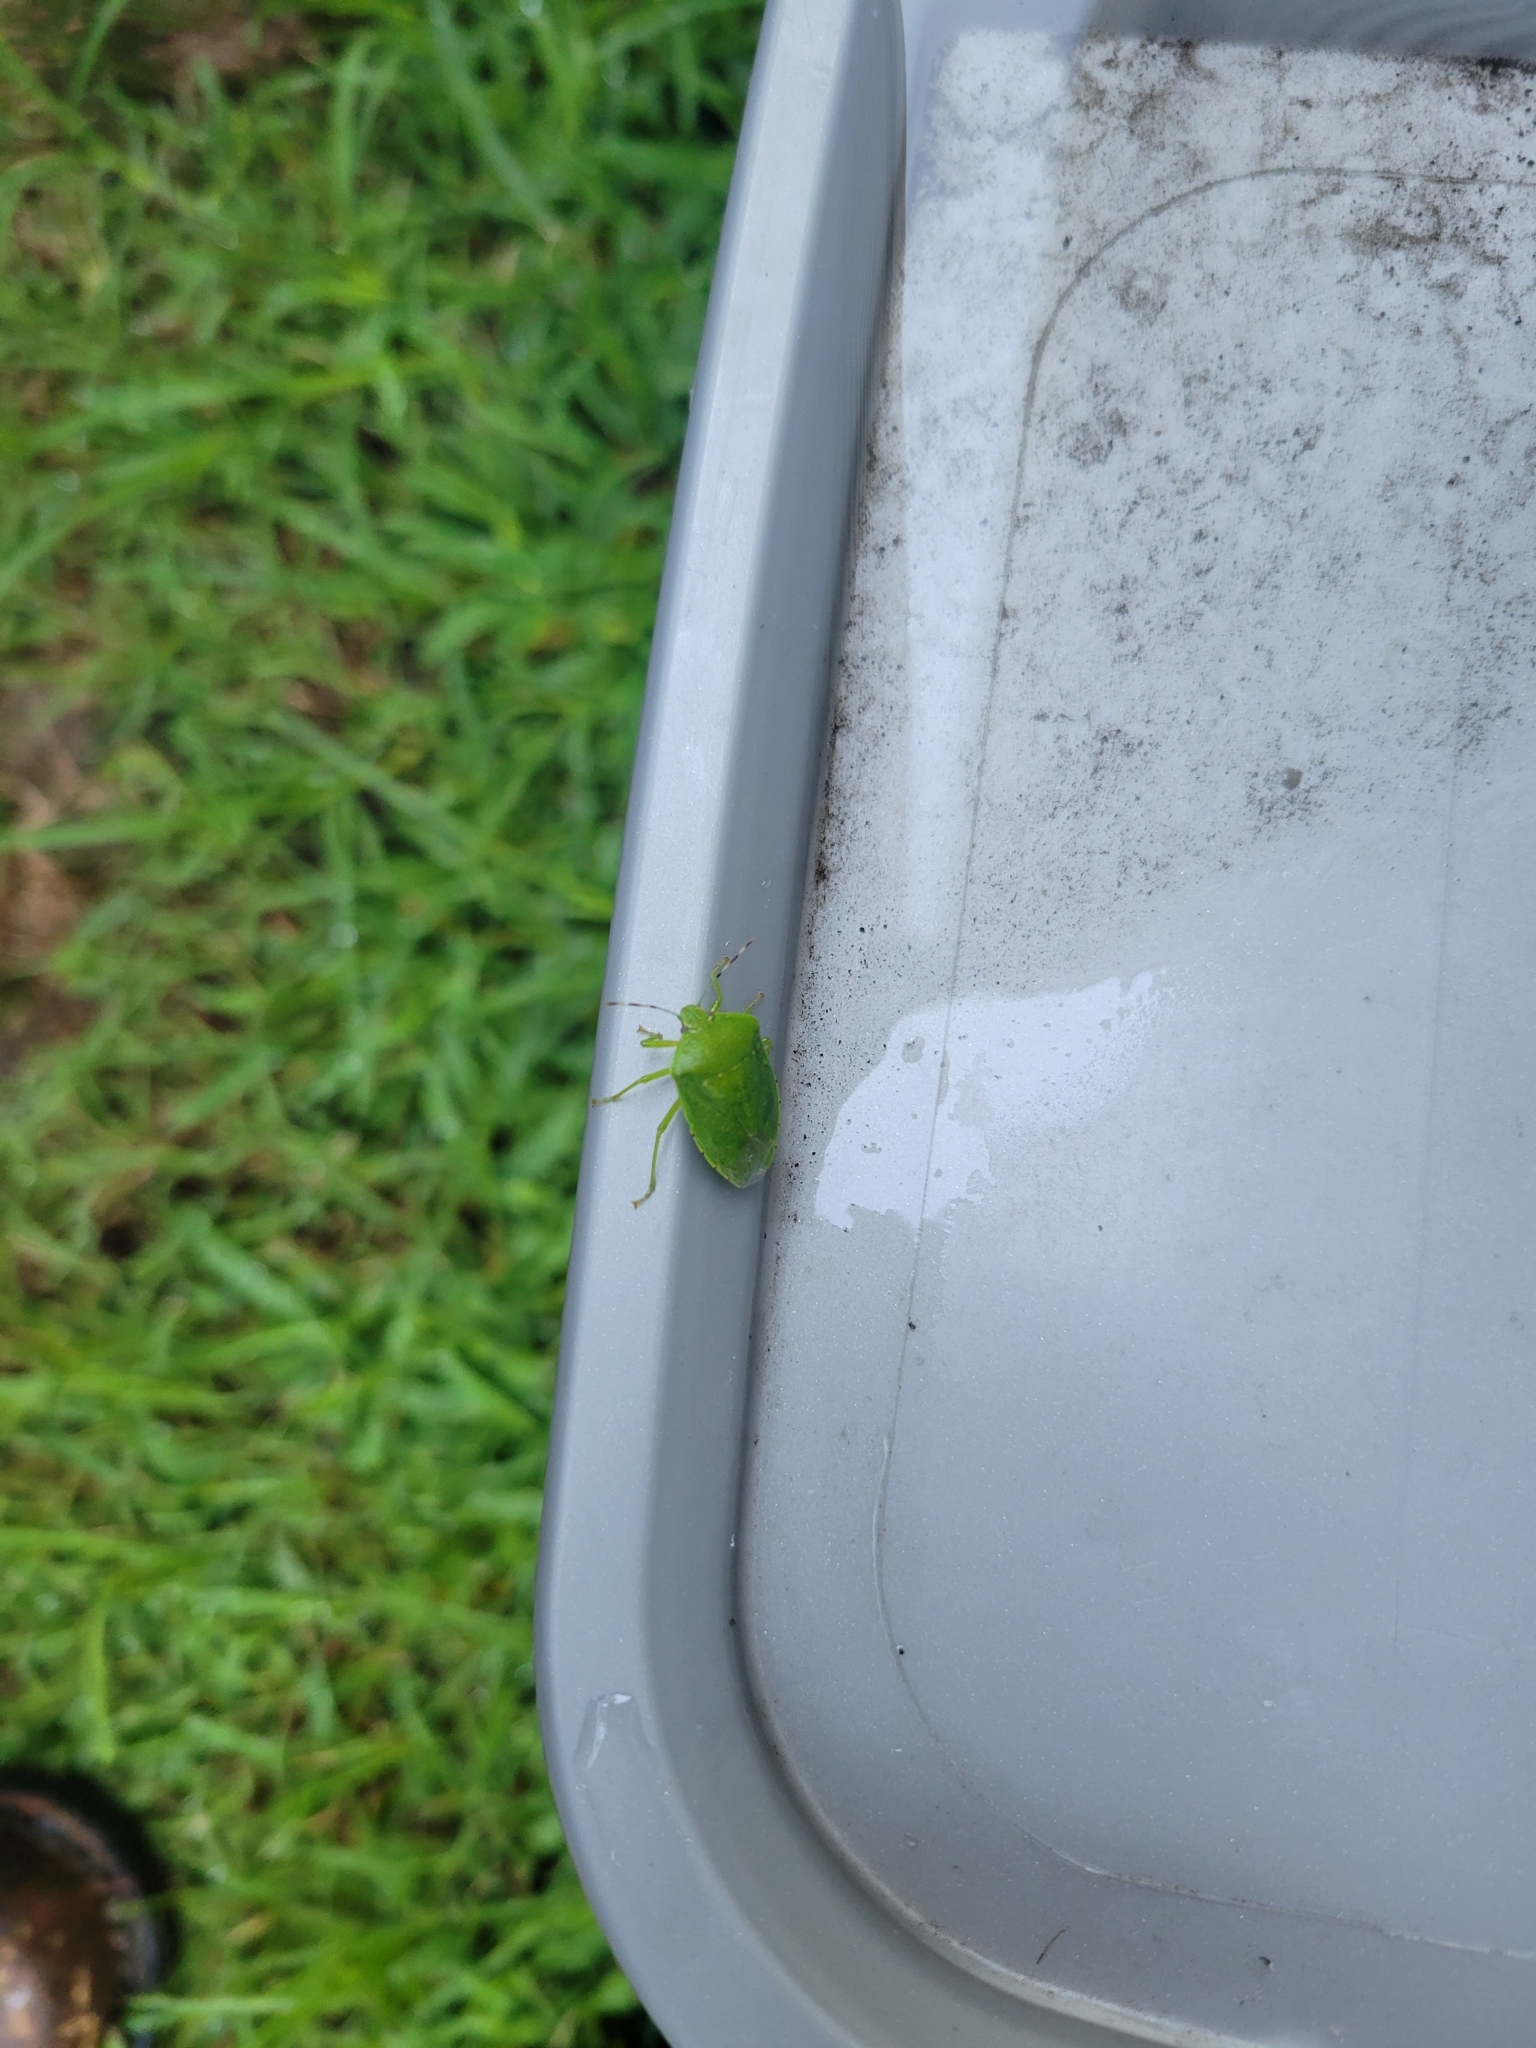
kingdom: Animalia
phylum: Arthropoda
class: Insecta
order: Hemiptera
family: Pentatomidae
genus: Chinavia
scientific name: Chinavia hilaris
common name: Green stink bug
